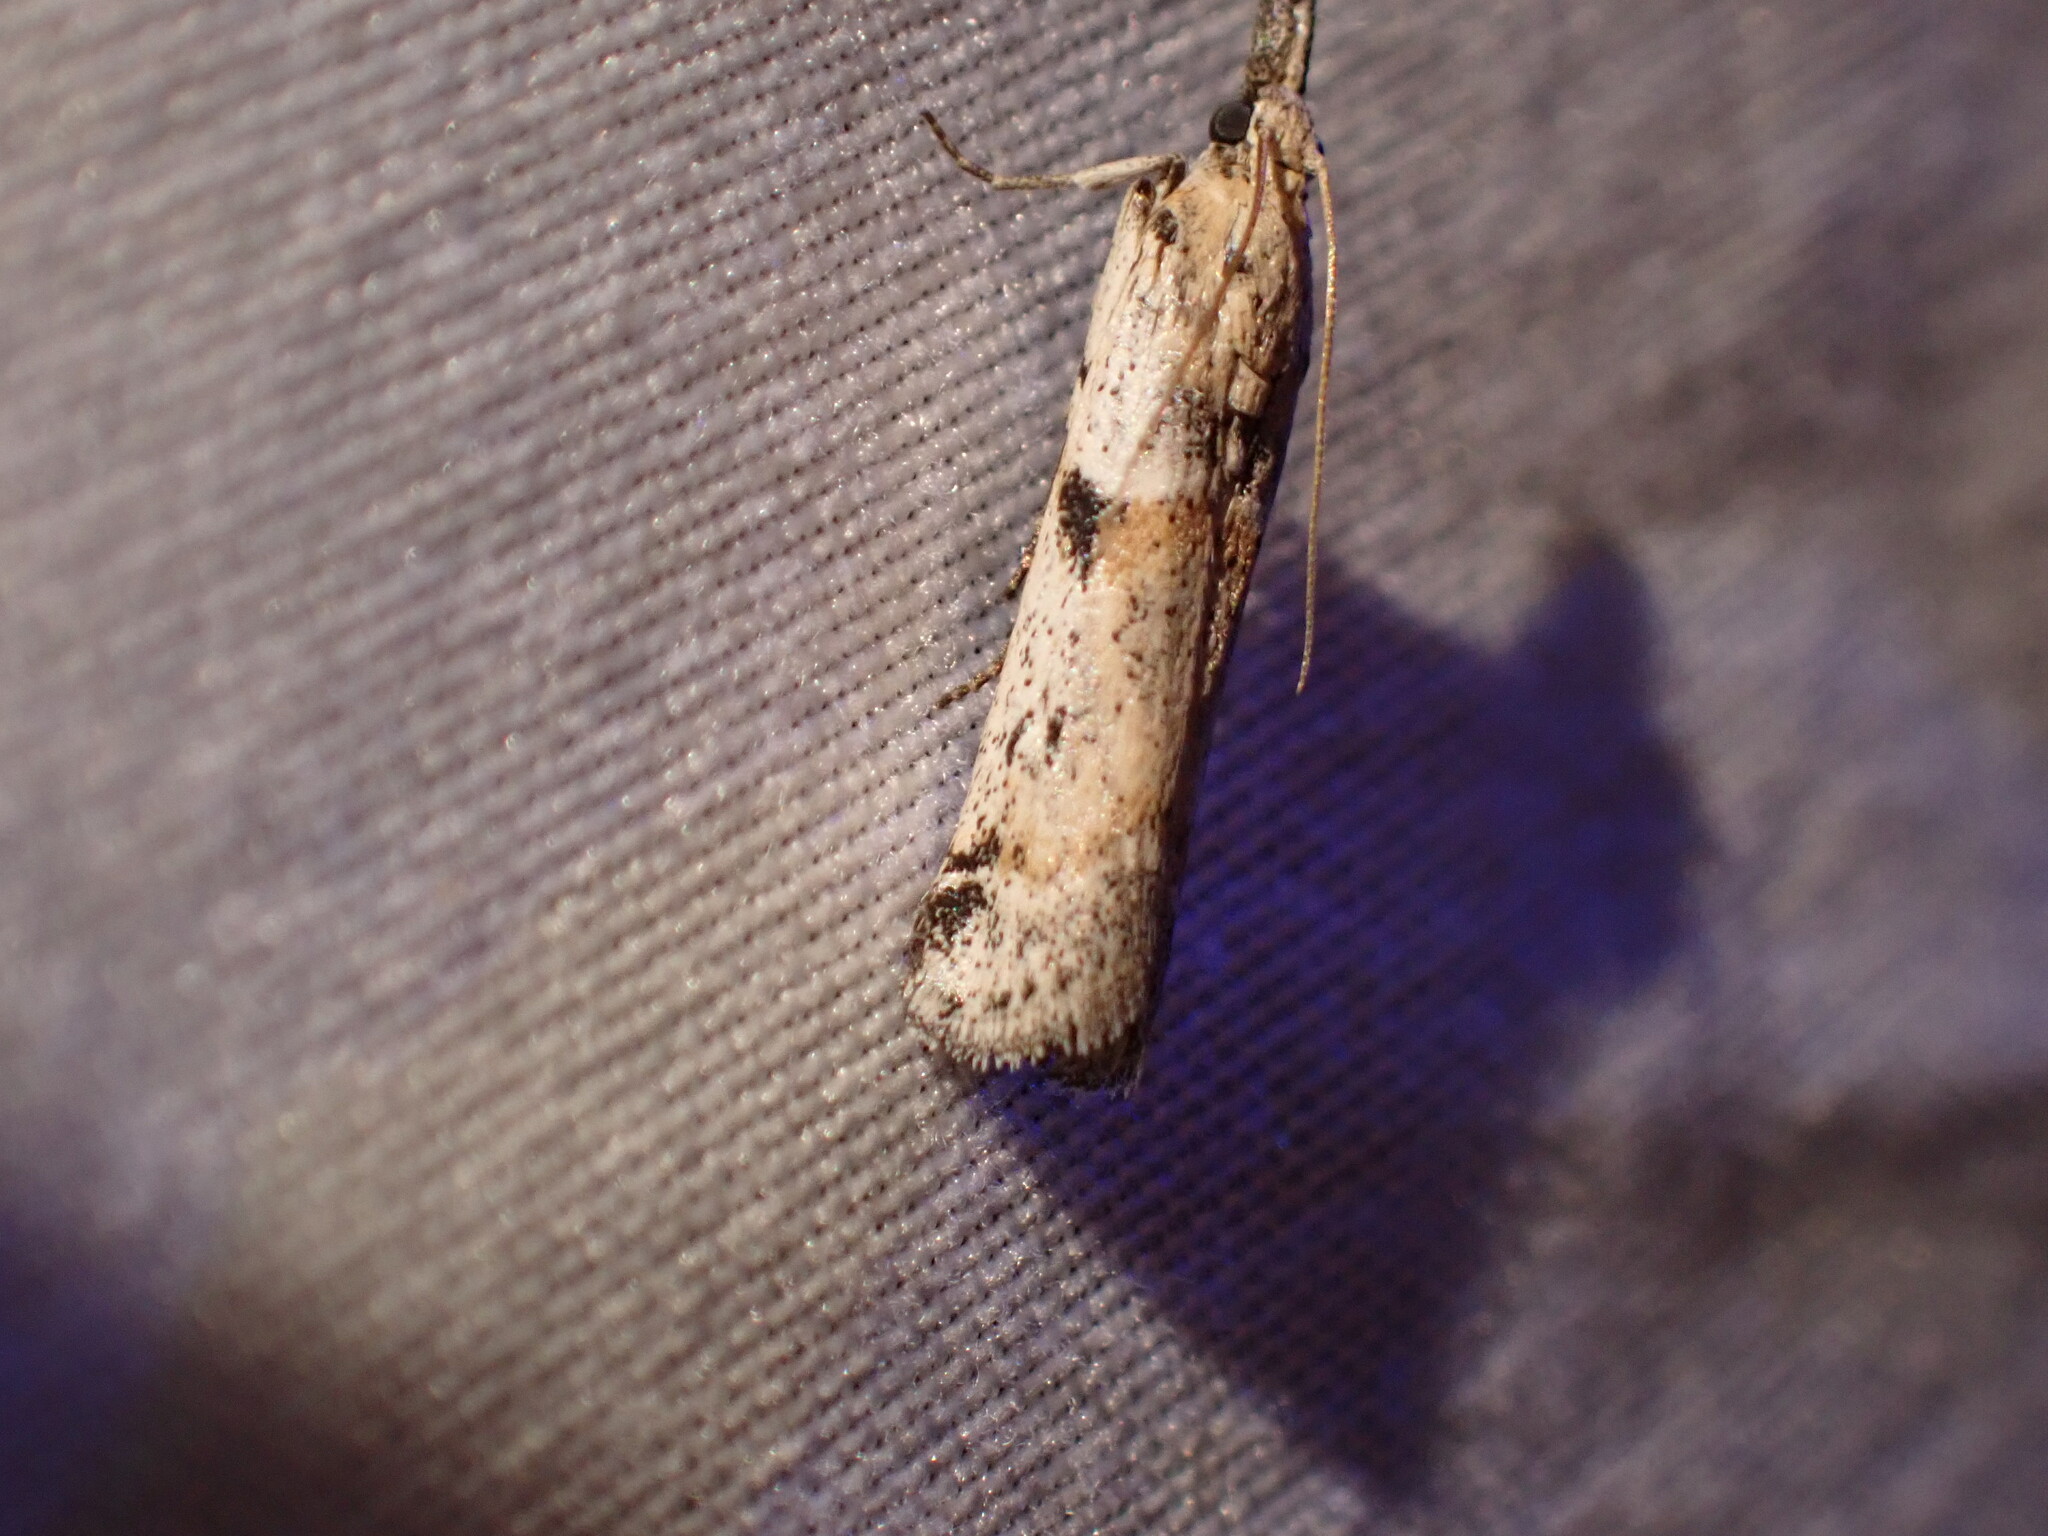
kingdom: Animalia
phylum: Arthropoda
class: Insecta
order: Lepidoptera
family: Pyralidae
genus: Rostrolaetilia
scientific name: Rostrolaetilia placidissima
